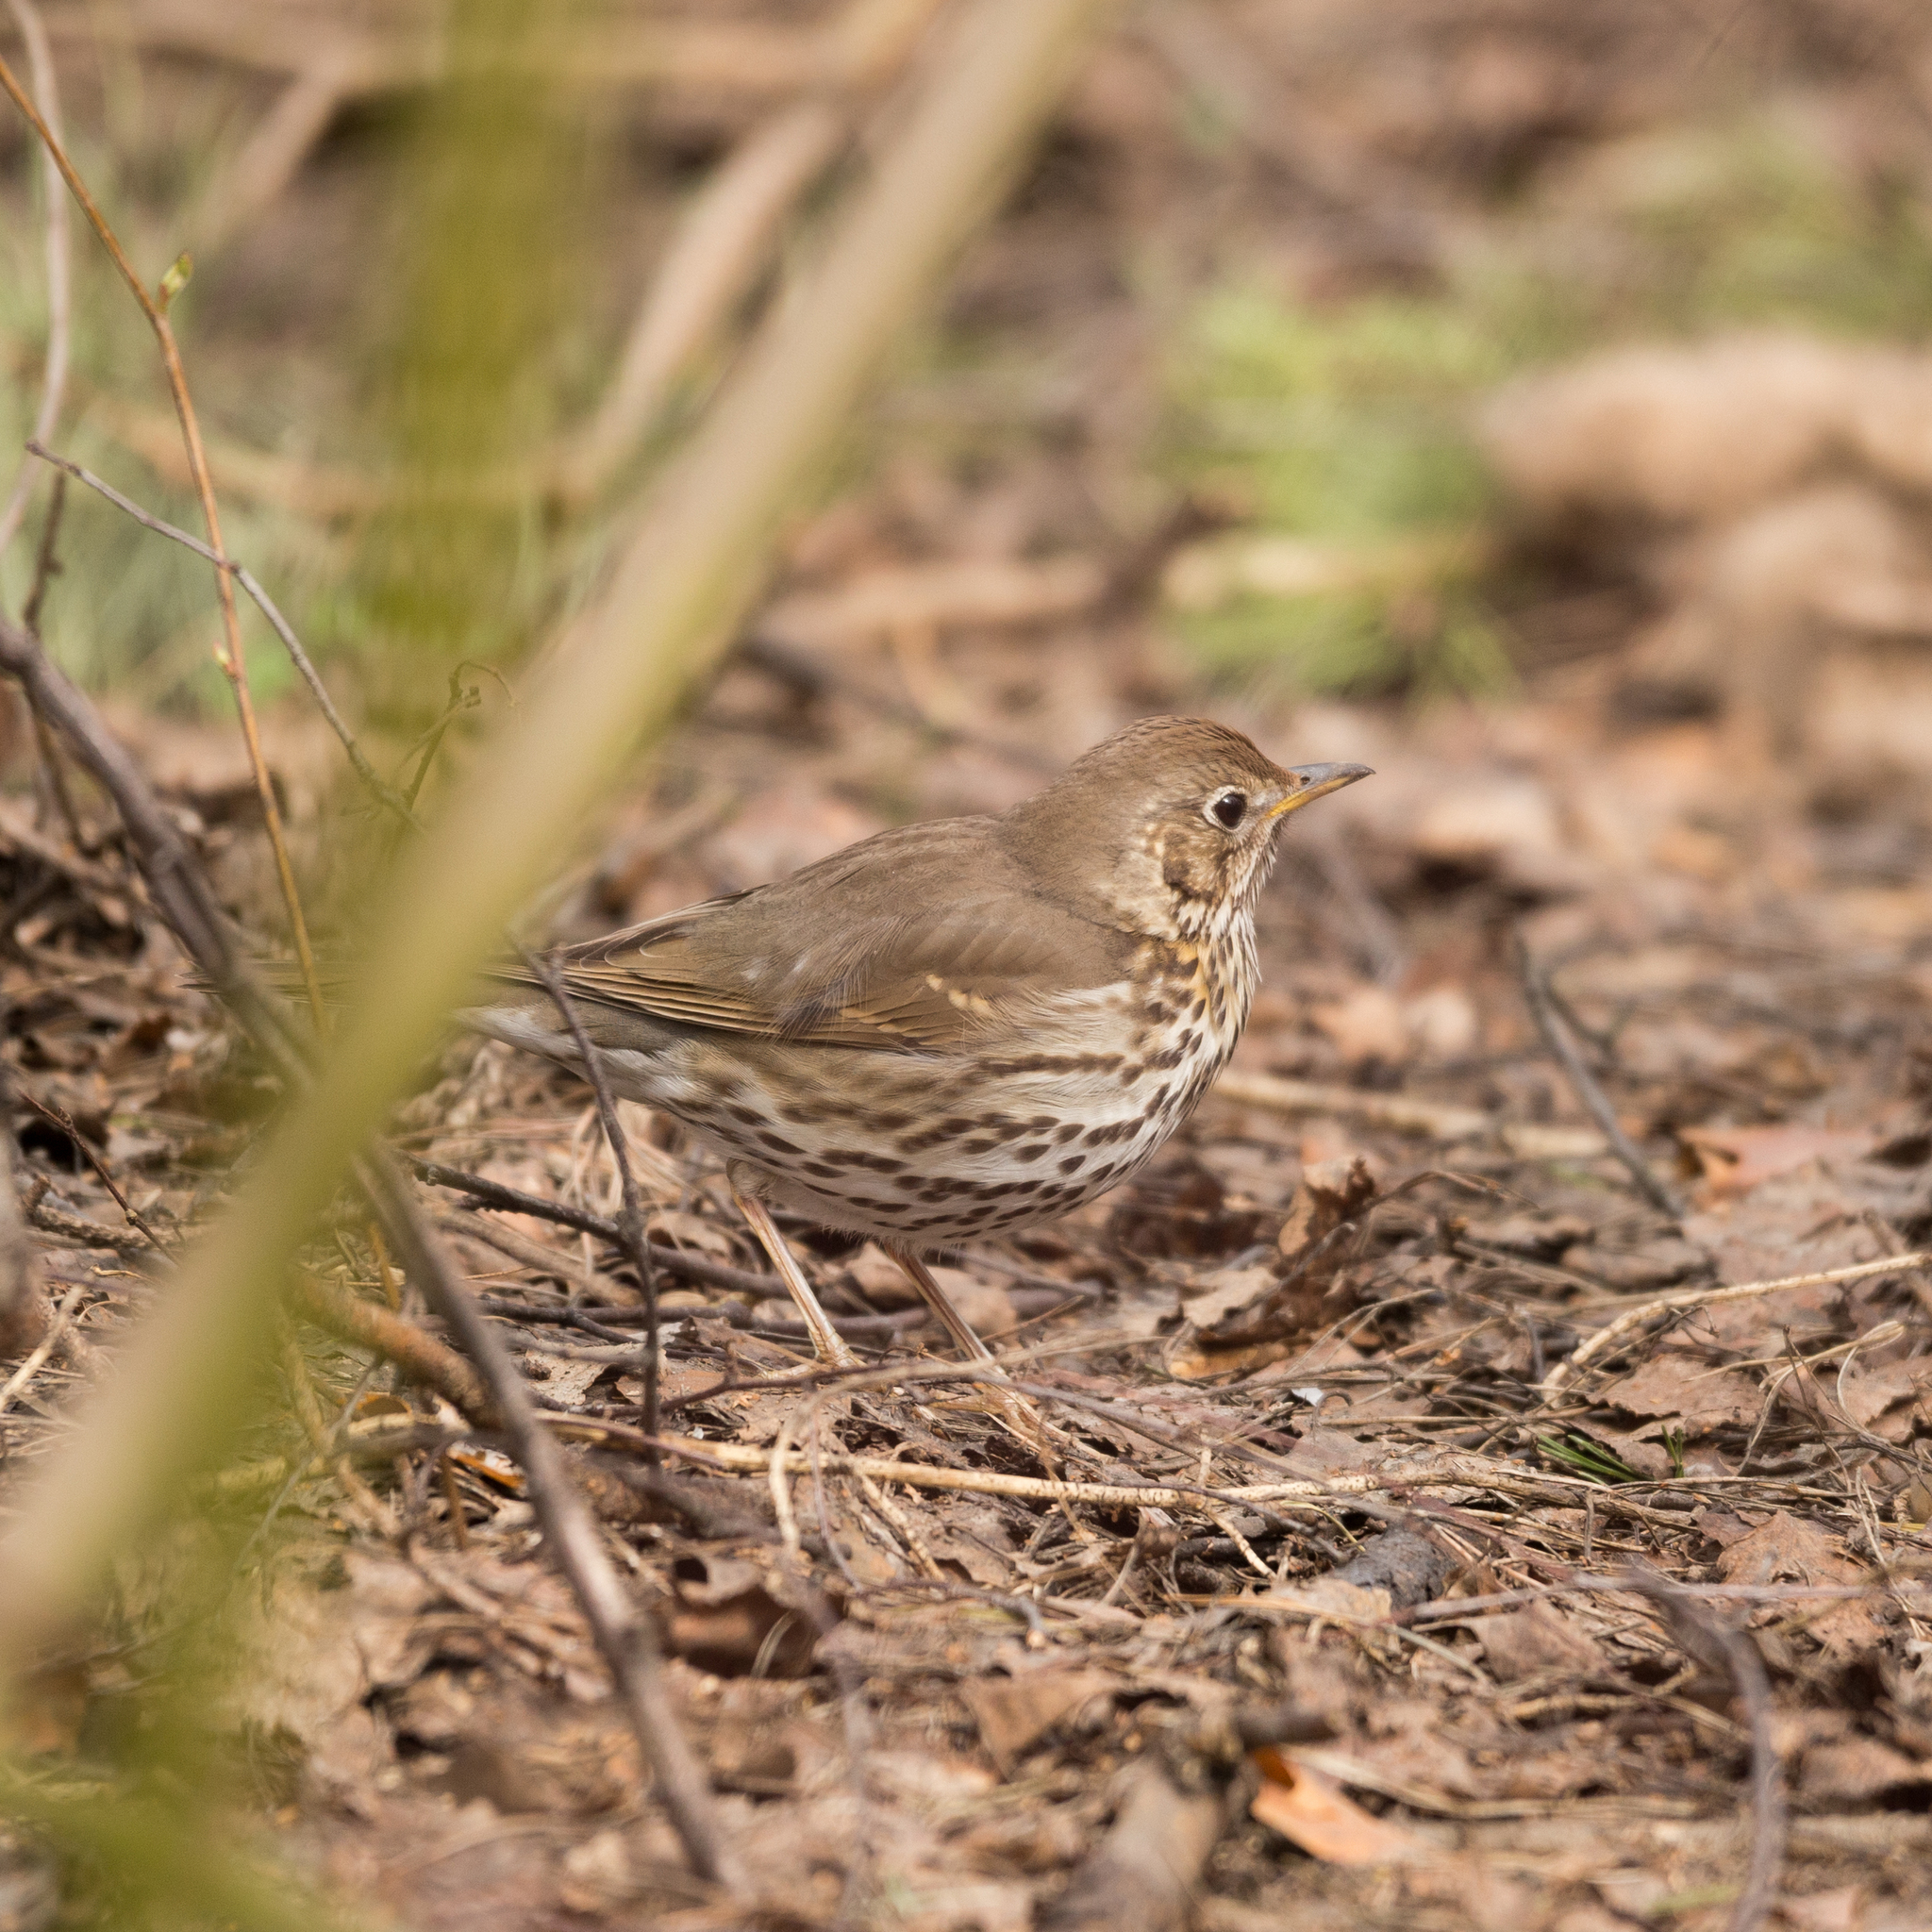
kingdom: Animalia
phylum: Chordata
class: Aves
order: Passeriformes
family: Turdidae
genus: Turdus
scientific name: Turdus philomelos
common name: Song thrush
